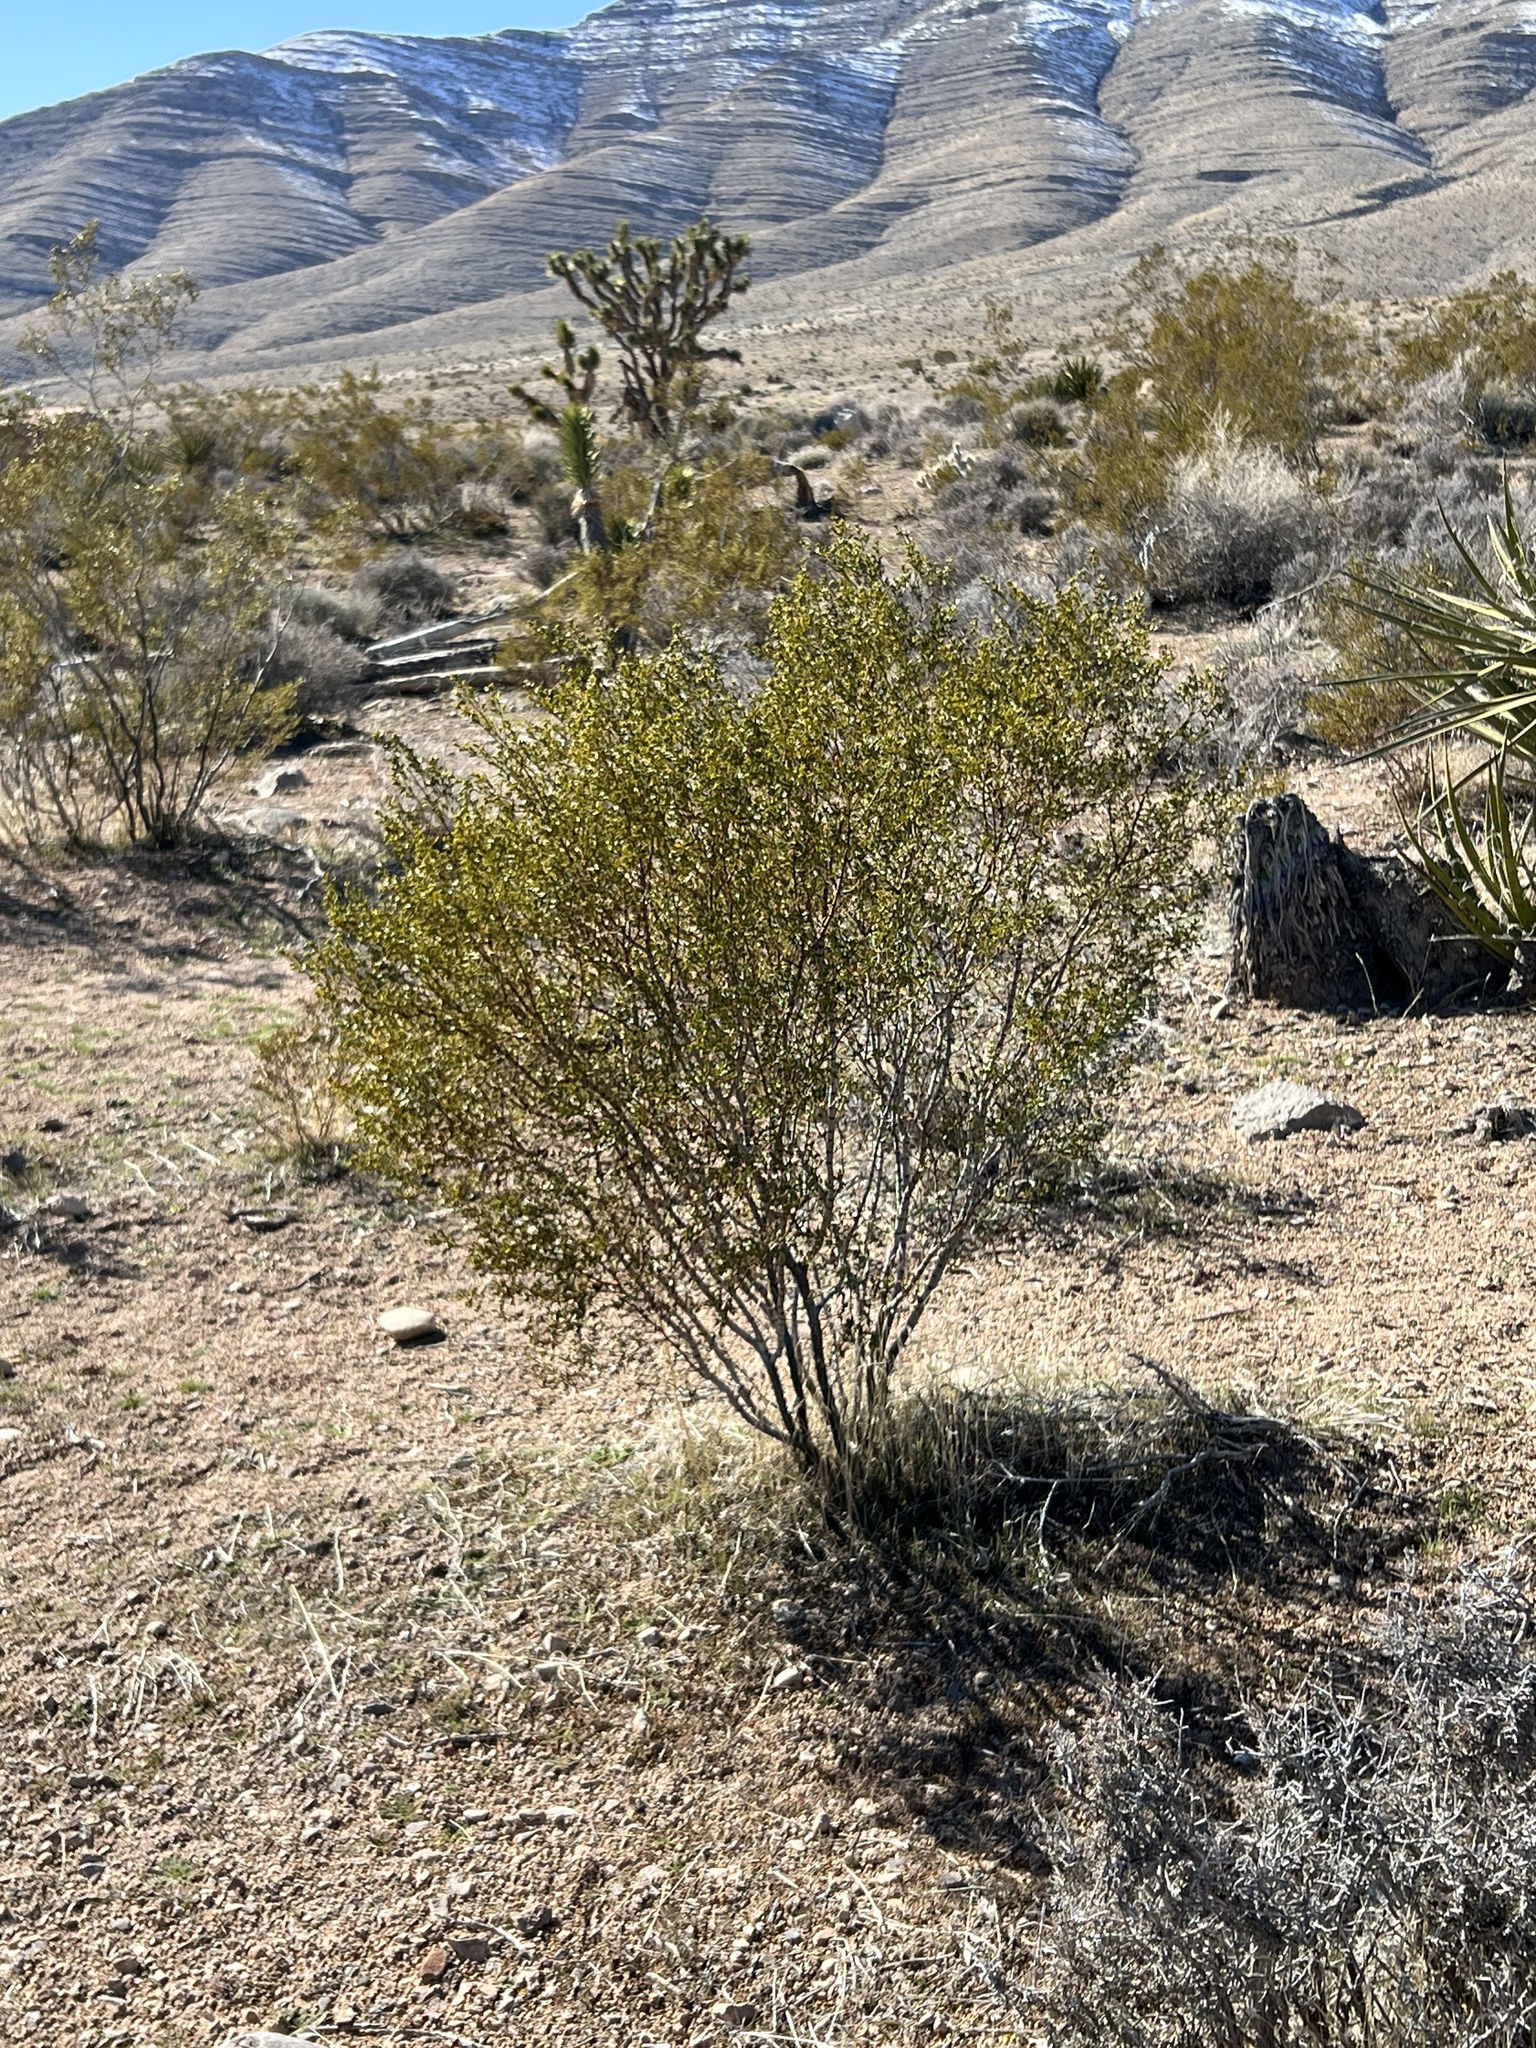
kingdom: Plantae
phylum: Tracheophyta
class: Magnoliopsida
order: Zygophyllales
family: Zygophyllaceae
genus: Larrea
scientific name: Larrea tridentata
